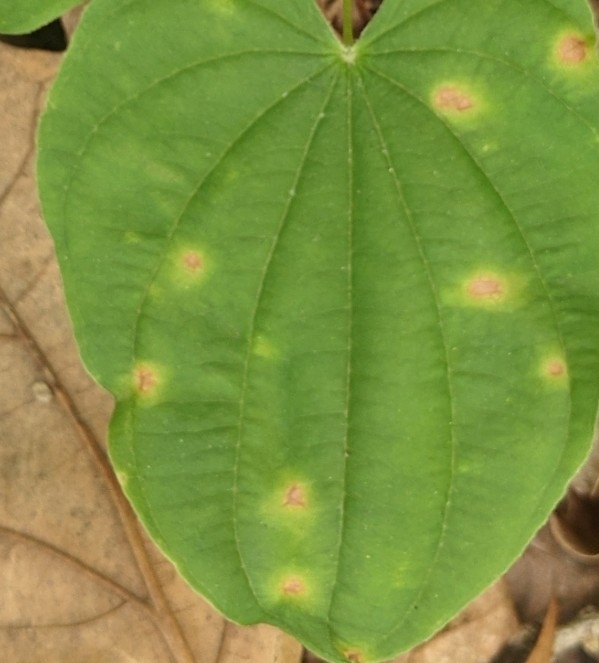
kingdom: Plantae
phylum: Tracheophyta
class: Liliopsida
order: Dioscoreales
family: Dioscoreaceae
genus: Dioscorea
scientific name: Dioscorea villosa
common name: Wild yam
